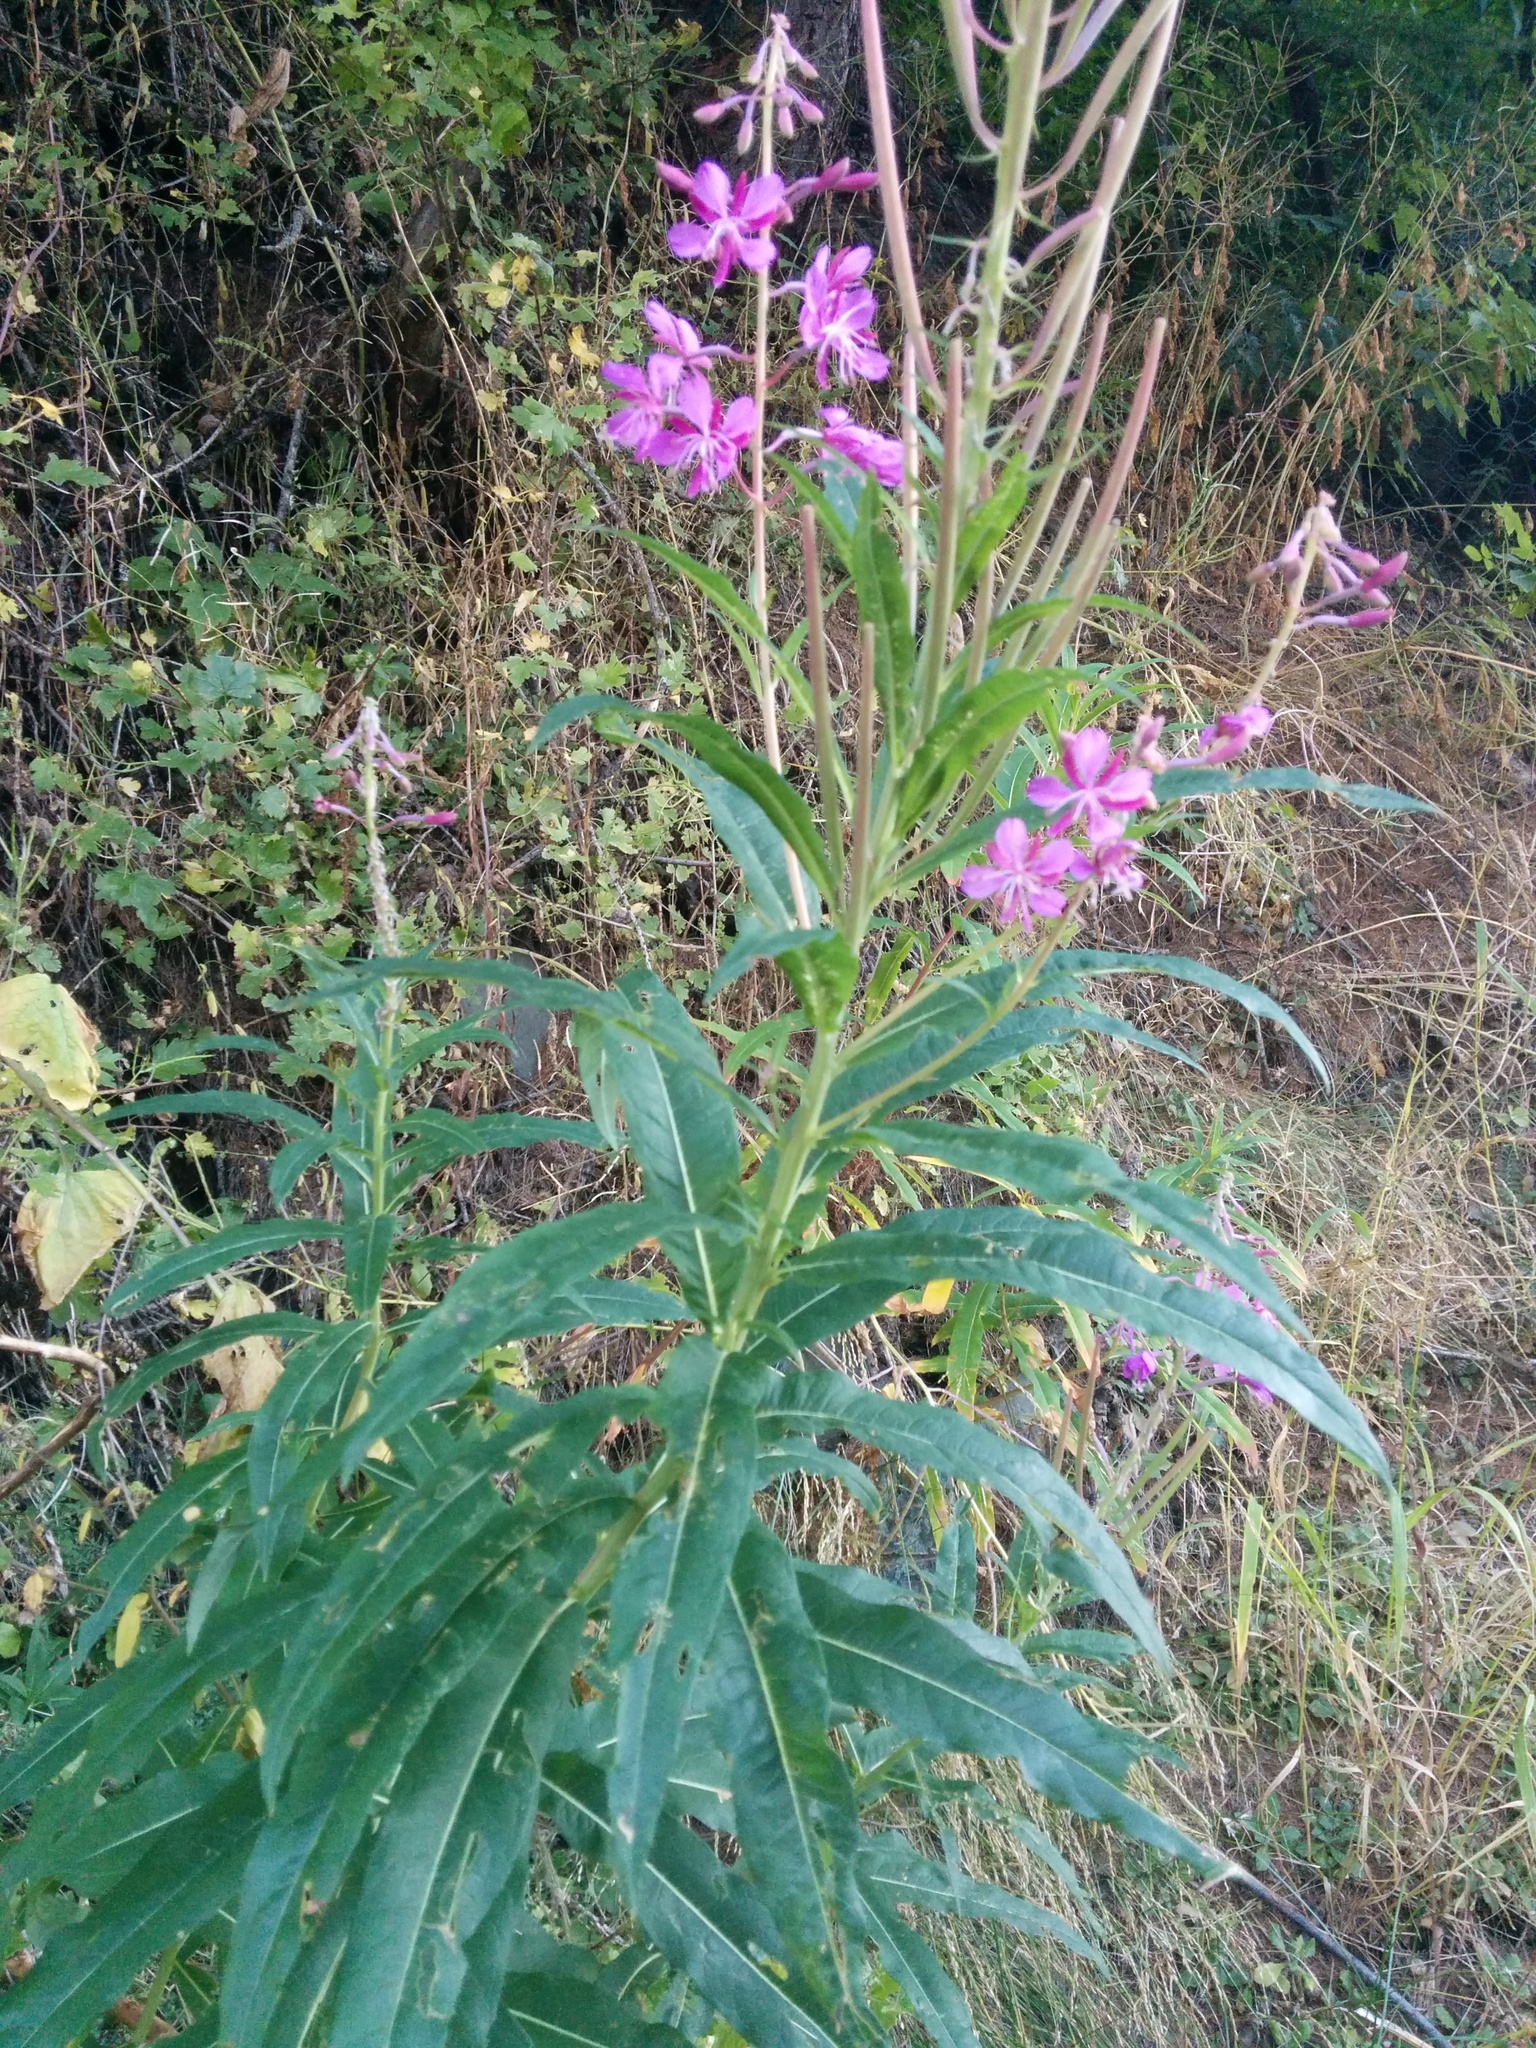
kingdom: Plantae
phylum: Tracheophyta
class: Magnoliopsida
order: Myrtales
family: Onagraceae
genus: Chamaenerion
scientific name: Chamaenerion angustifolium
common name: Fireweed
